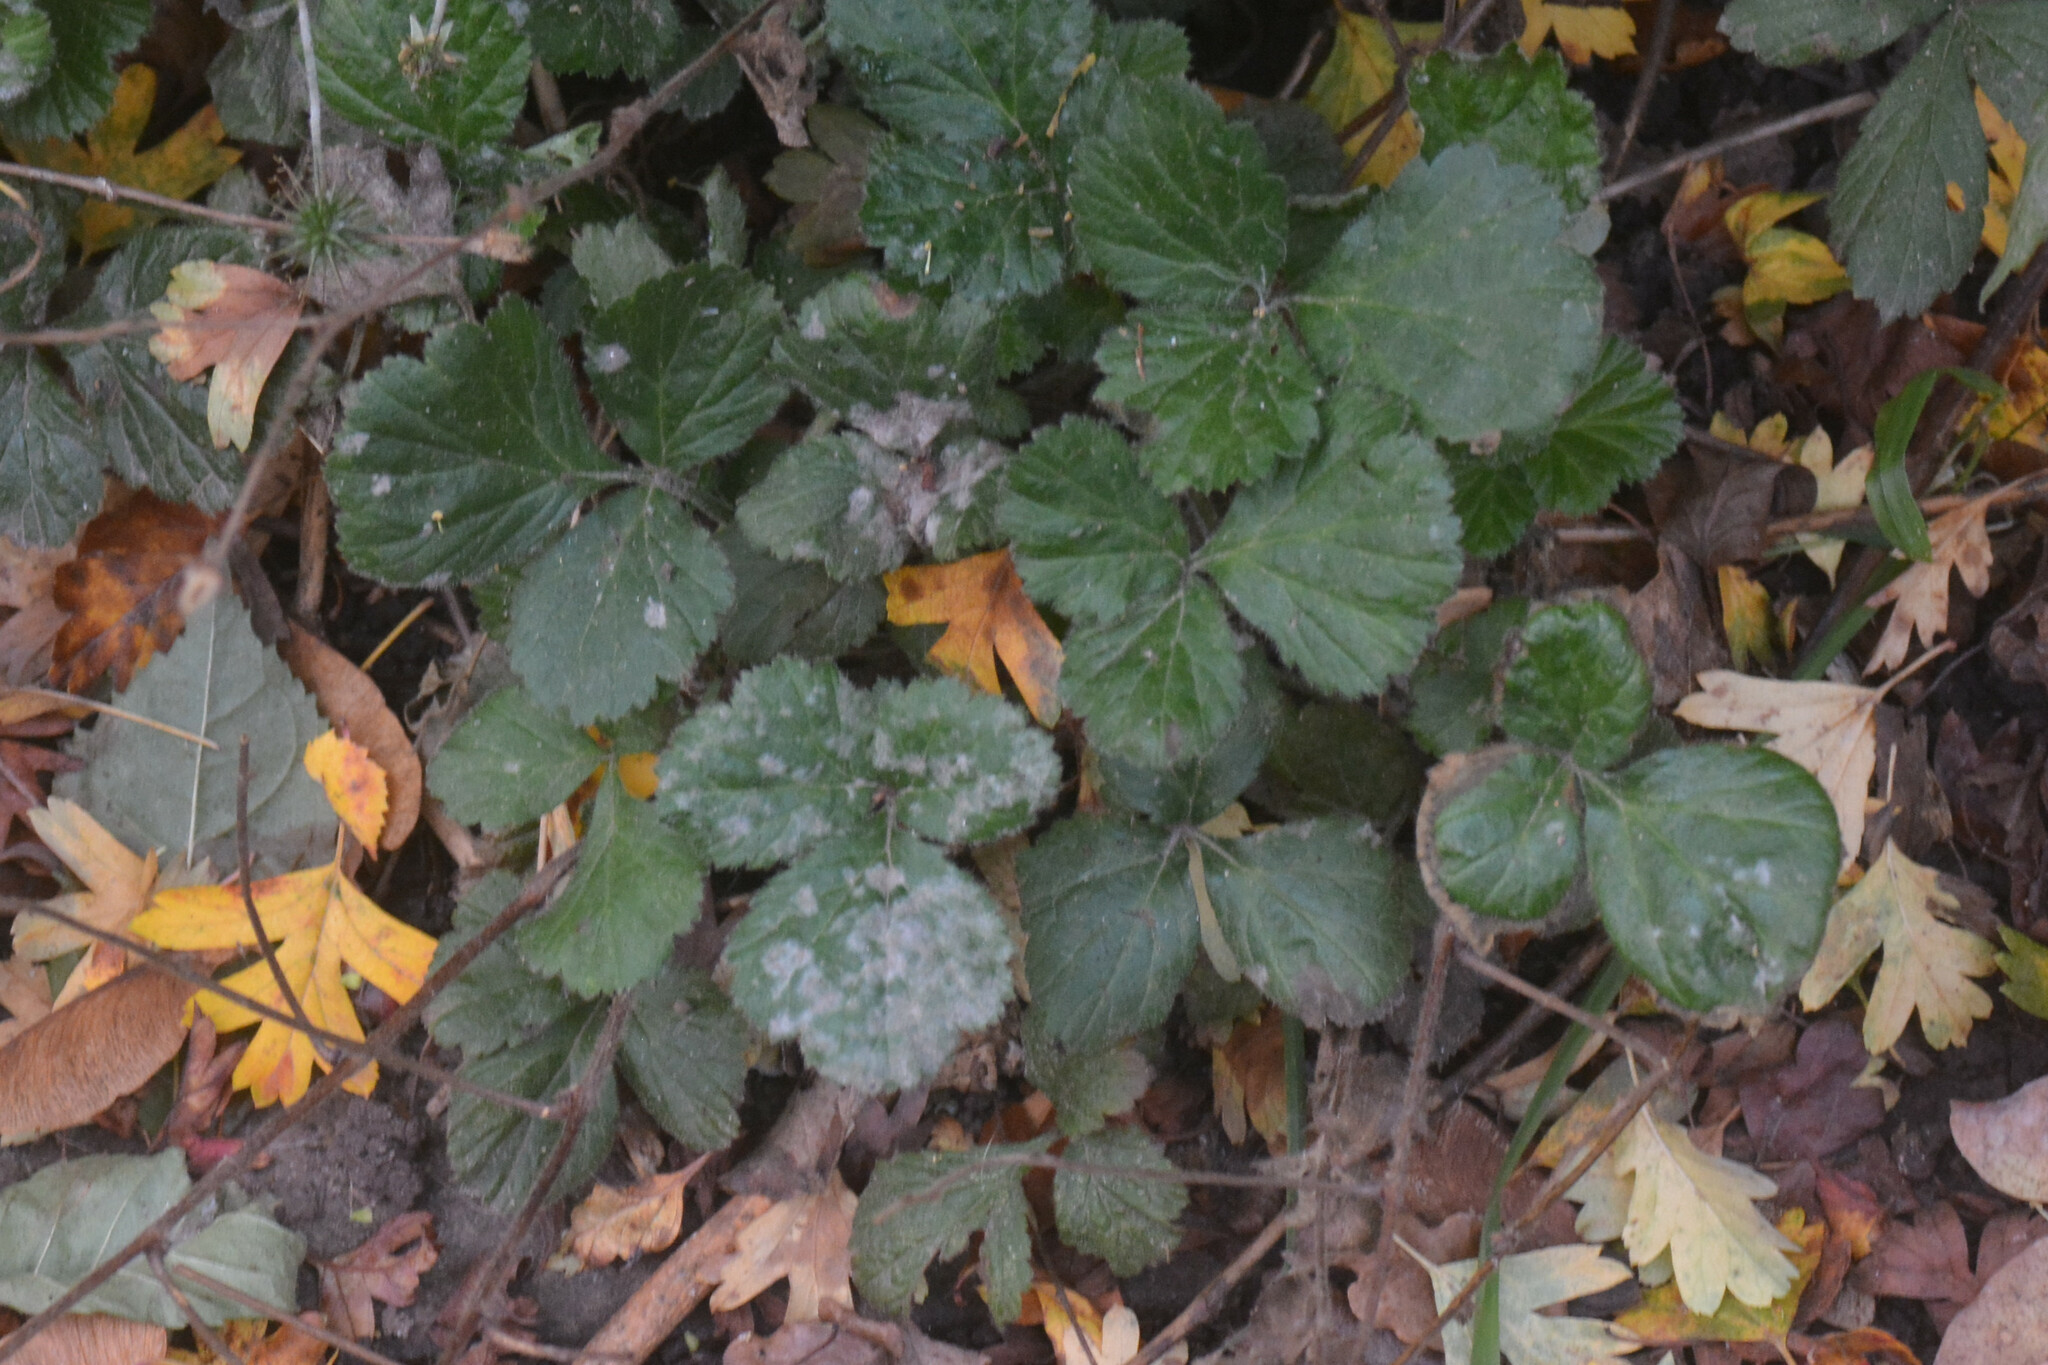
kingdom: Fungi
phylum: Ascomycota
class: Leotiomycetes
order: Helotiales
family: Erysiphaceae
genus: Podosphaera
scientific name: Podosphaera aphanis
